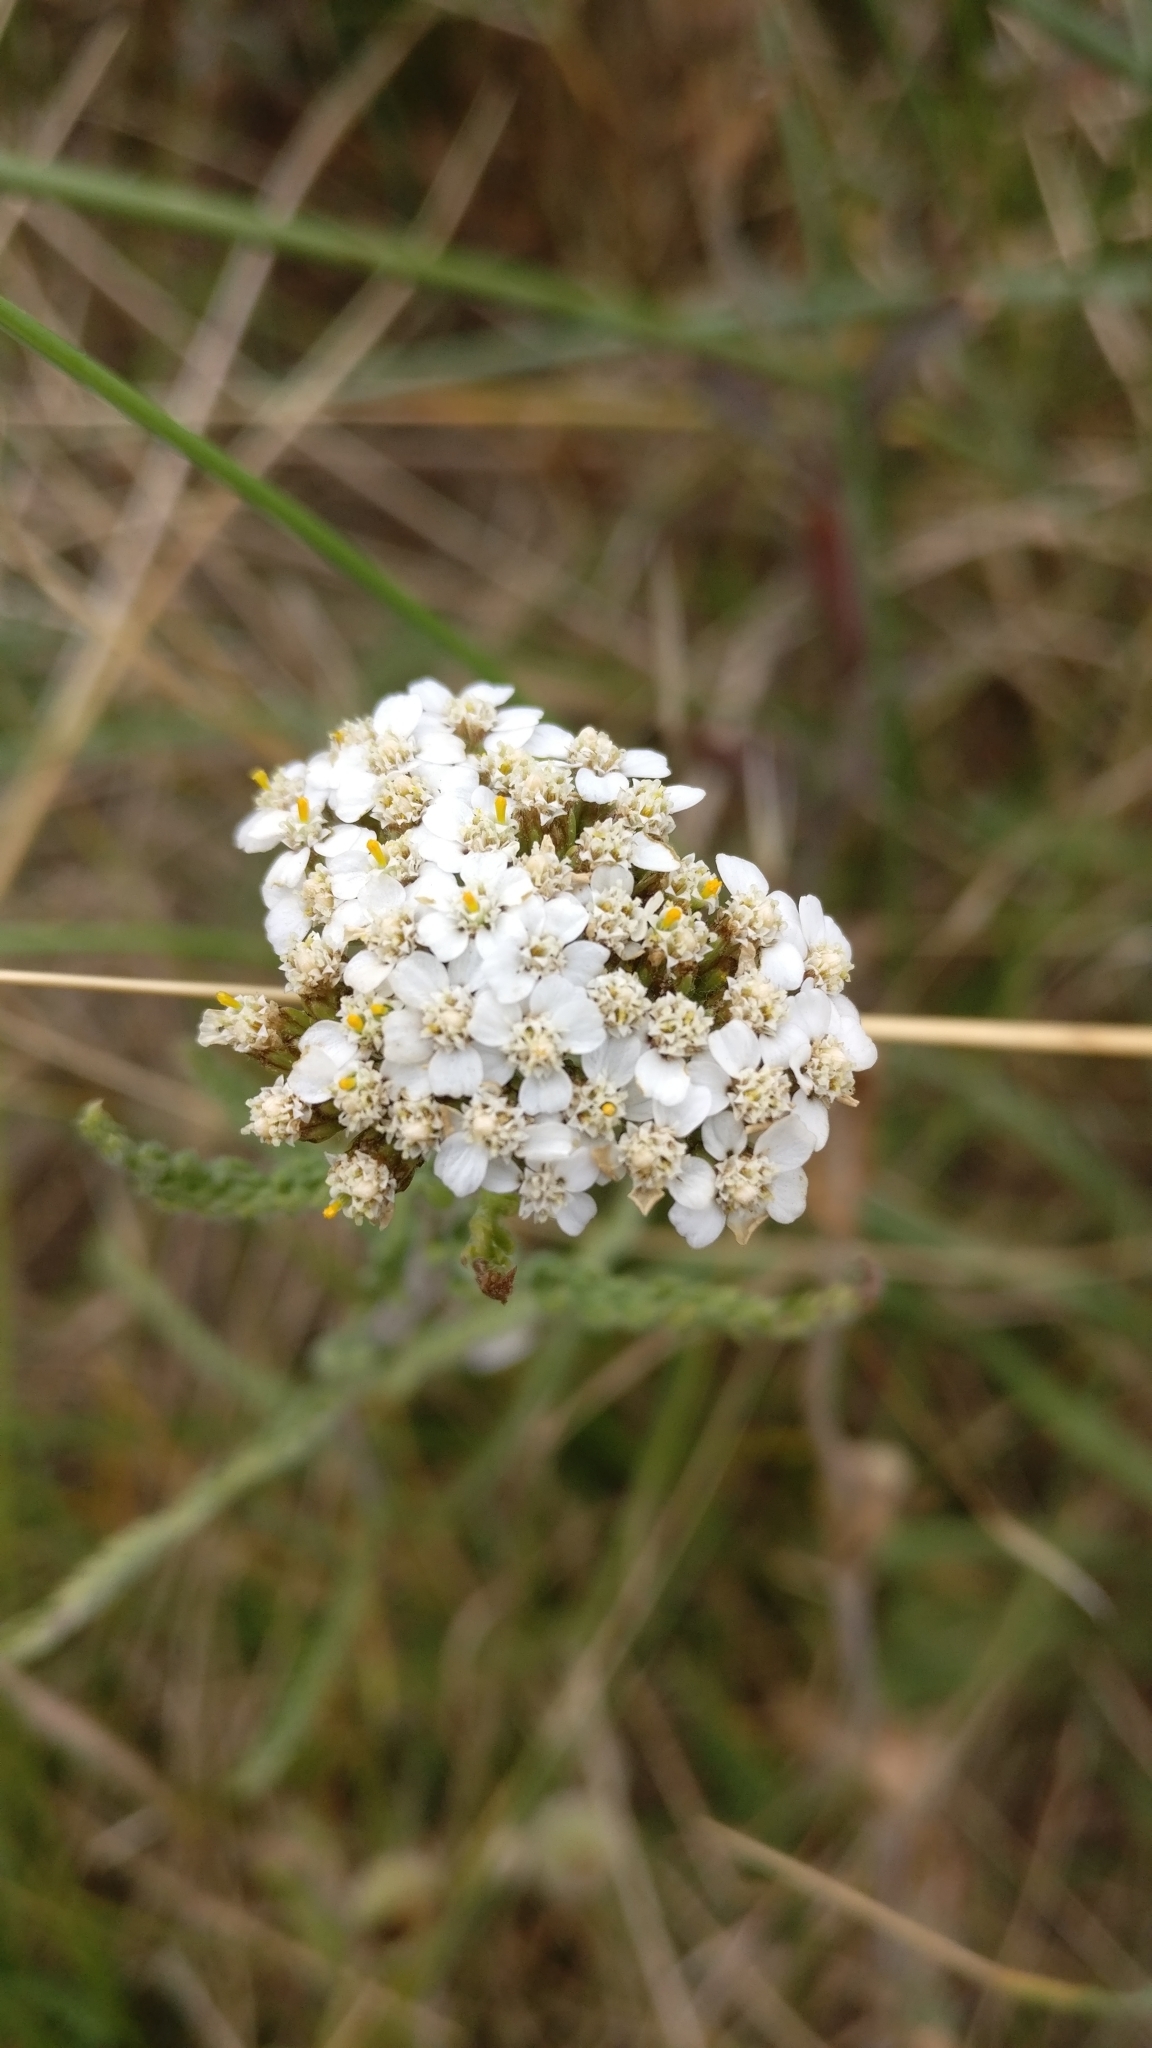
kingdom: Plantae
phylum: Tracheophyta
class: Magnoliopsida
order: Asterales
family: Asteraceae
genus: Achillea
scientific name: Achillea millefolium
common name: Yarrow
